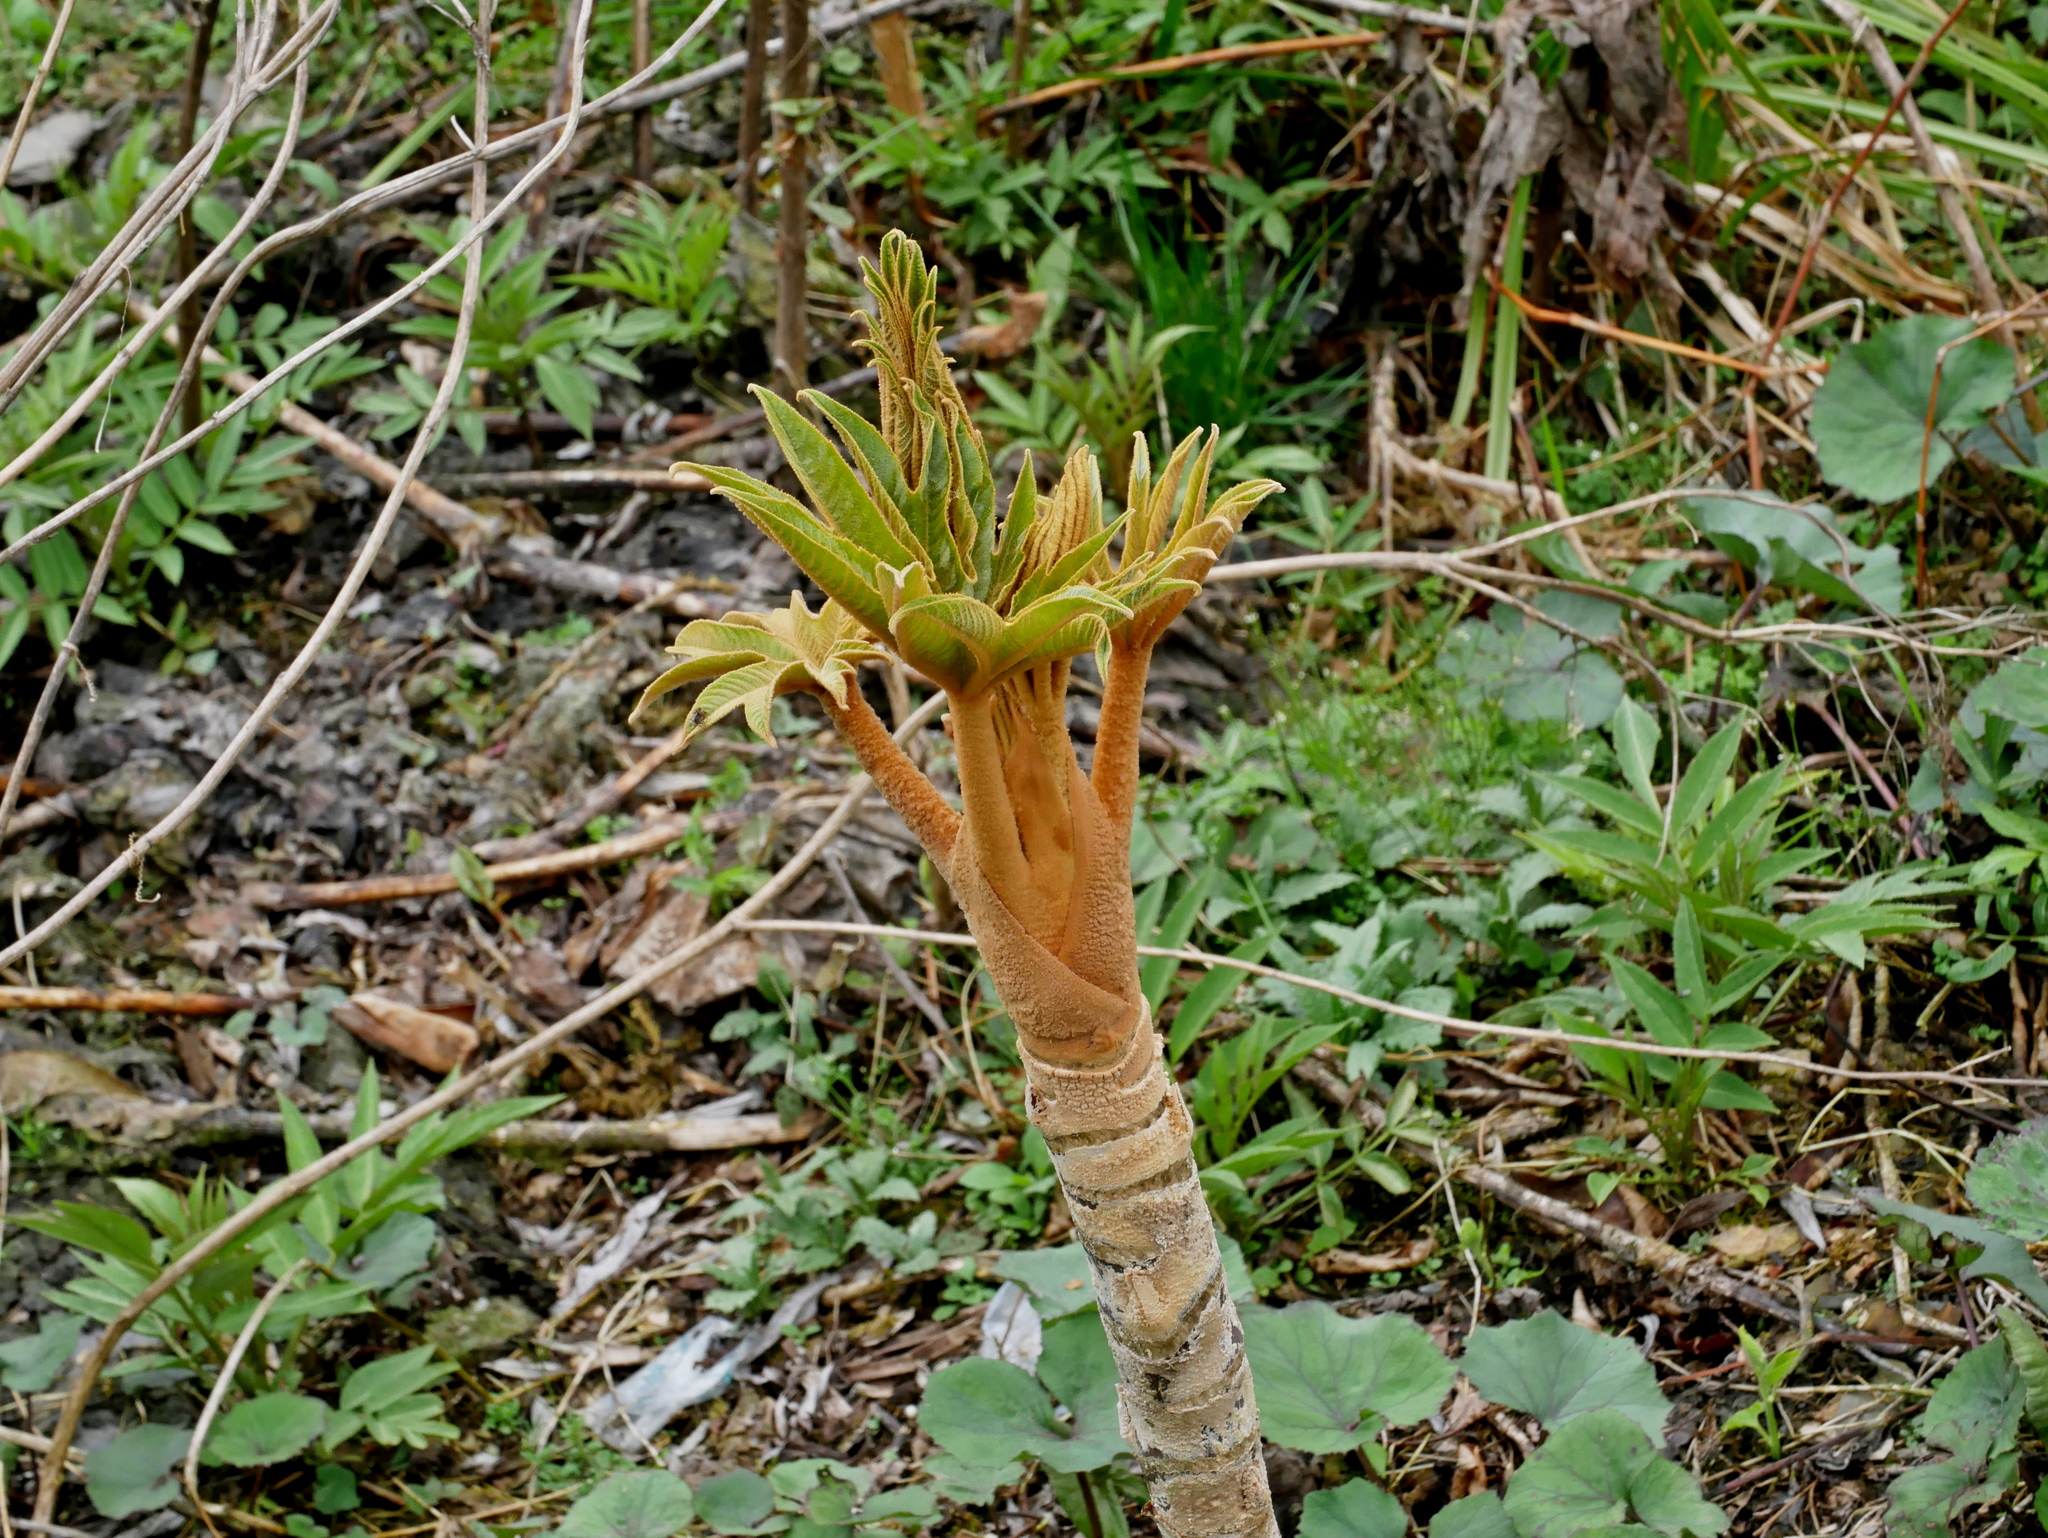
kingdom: Plantae
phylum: Tracheophyta
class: Magnoliopsida
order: Apiales
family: Araliaceae
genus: Tetrapanax
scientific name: Tetrapanax papyrifer
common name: Rice-paper plant
